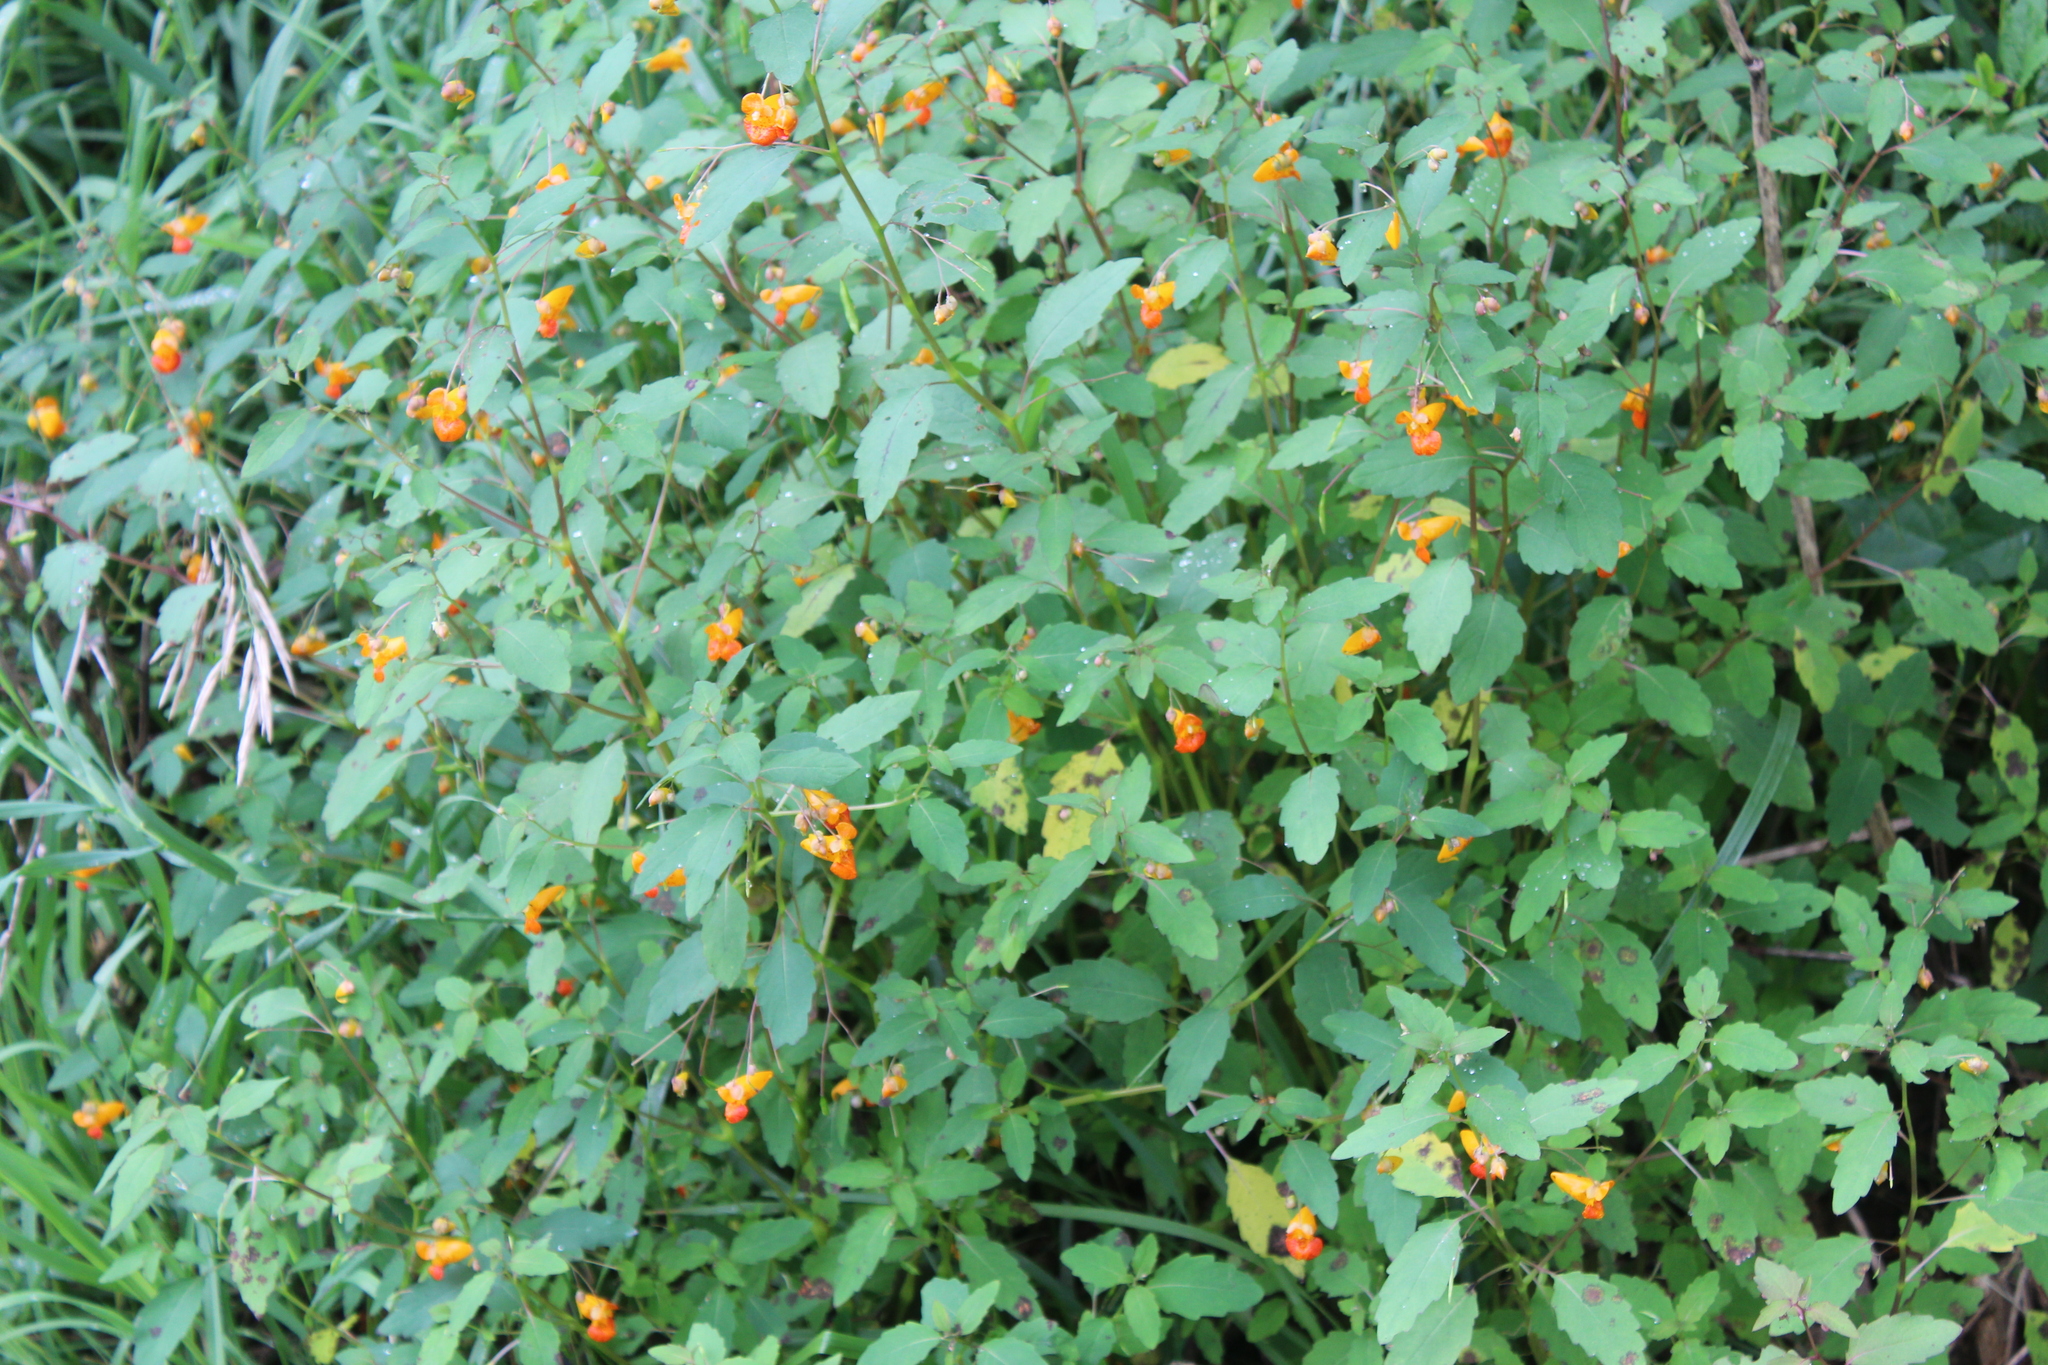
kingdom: Plantae
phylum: Tracheophyta
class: Magnoliopsida
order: Ericales
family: Balsaminaceae
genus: Impatiens
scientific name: Impatiens capensis
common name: Orange balsam
